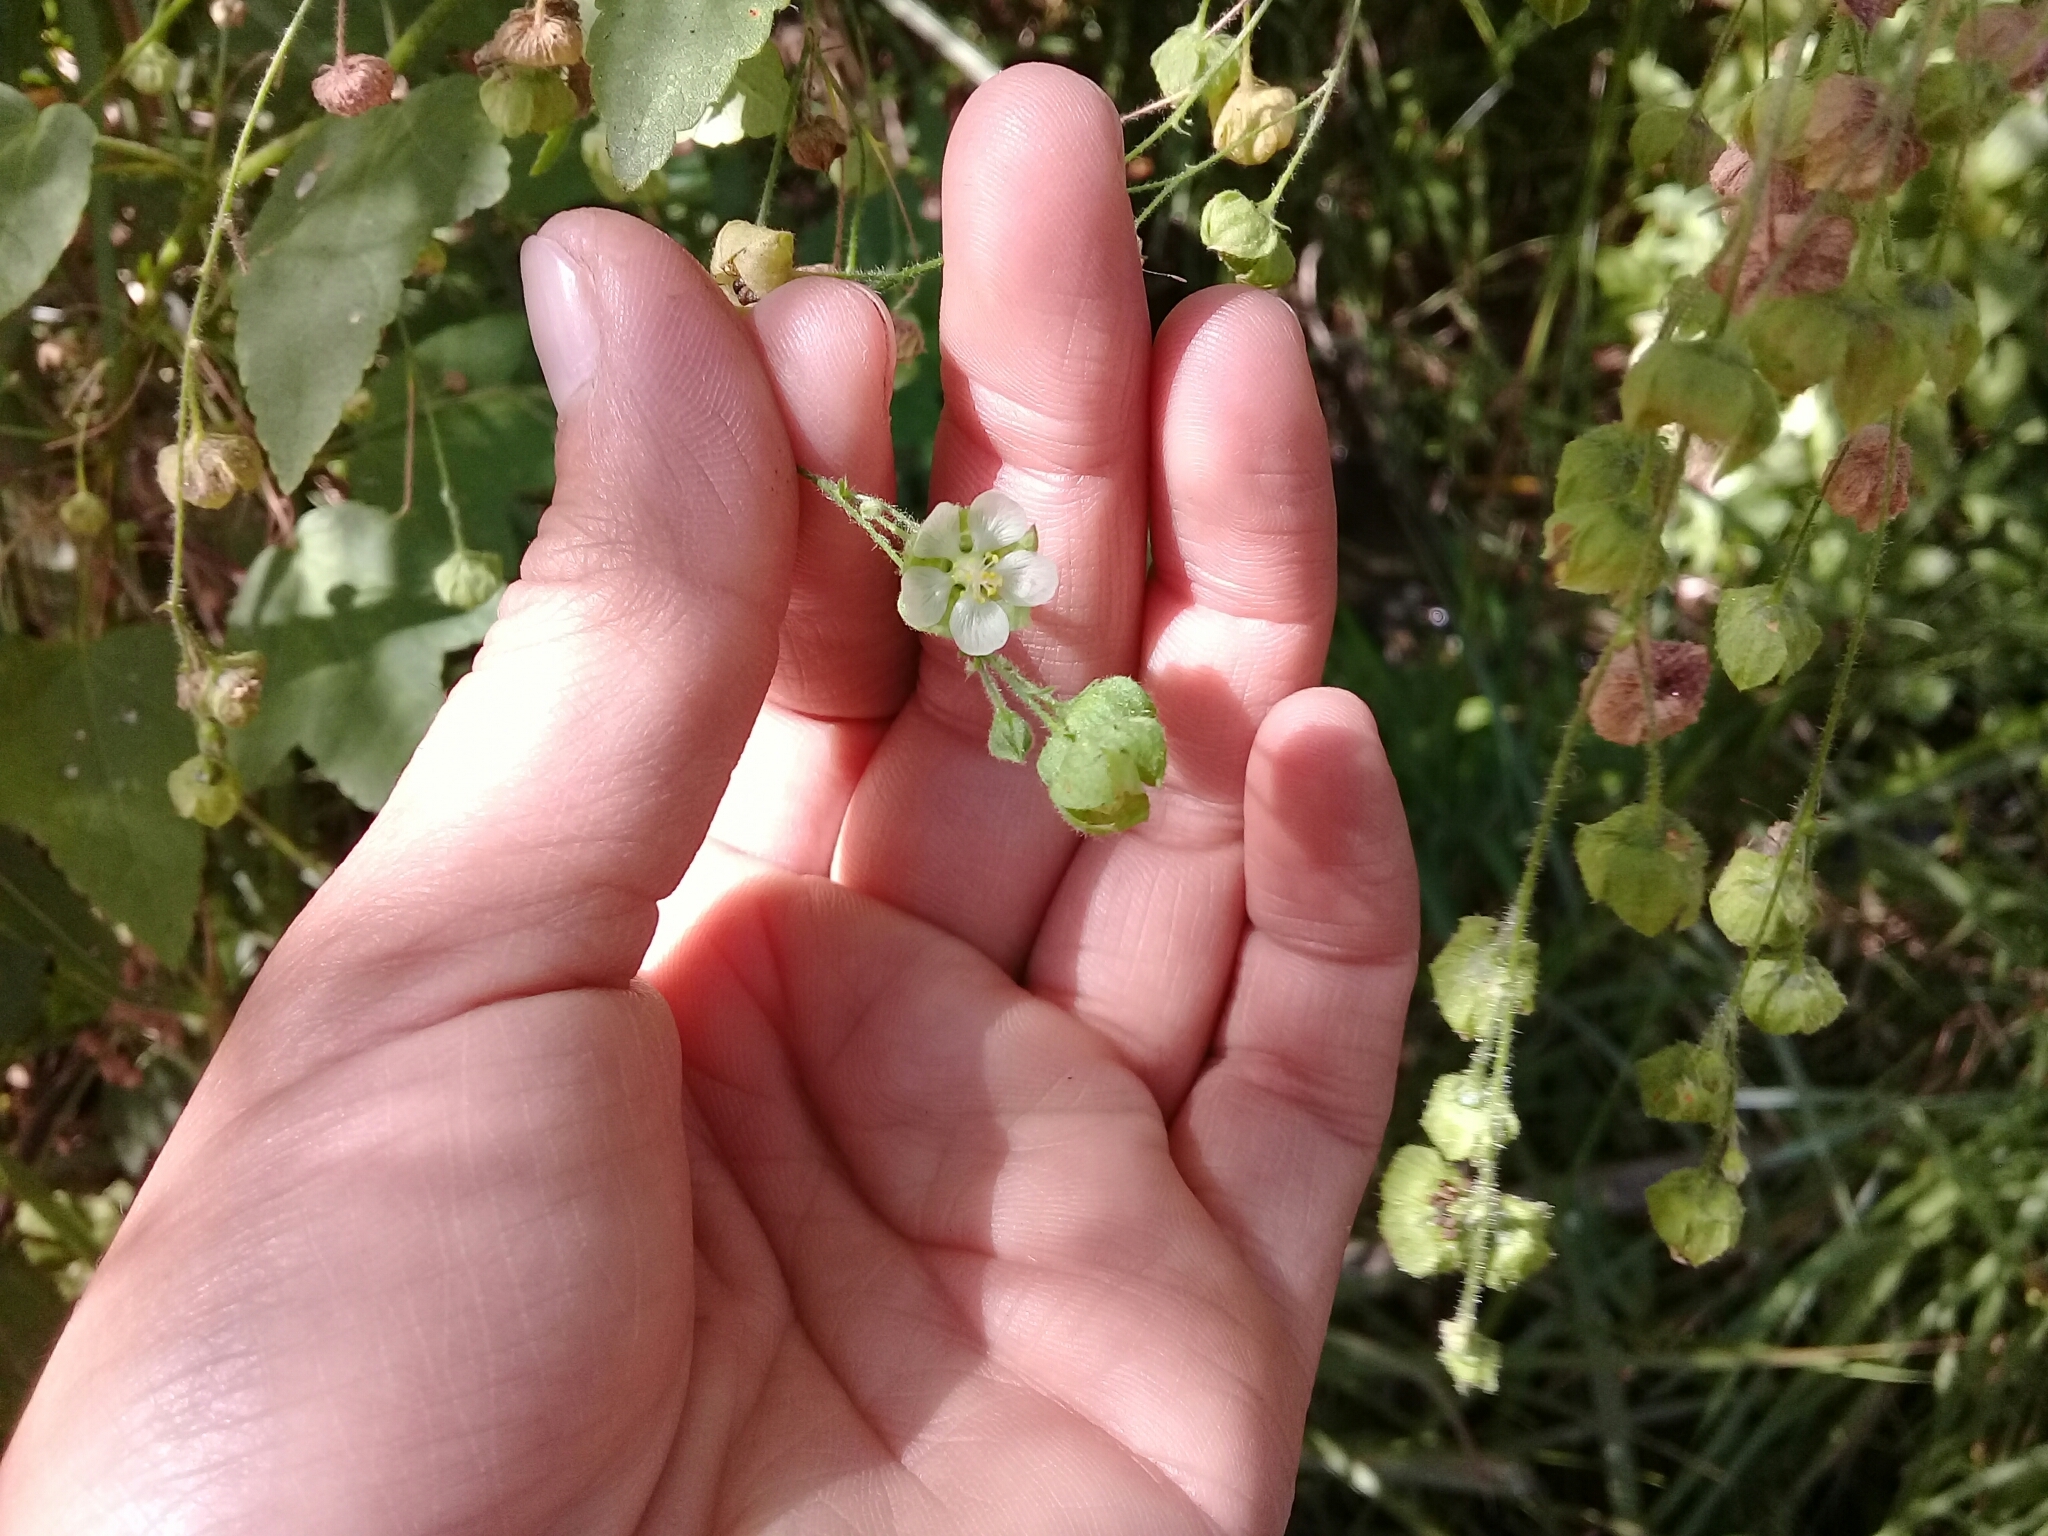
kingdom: Plantae
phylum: Tracheophyta
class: Magnoliopsida
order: Malvales
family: Malvaceae
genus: Kearnemalvastrum
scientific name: Kearnemalvastrum lacteum
